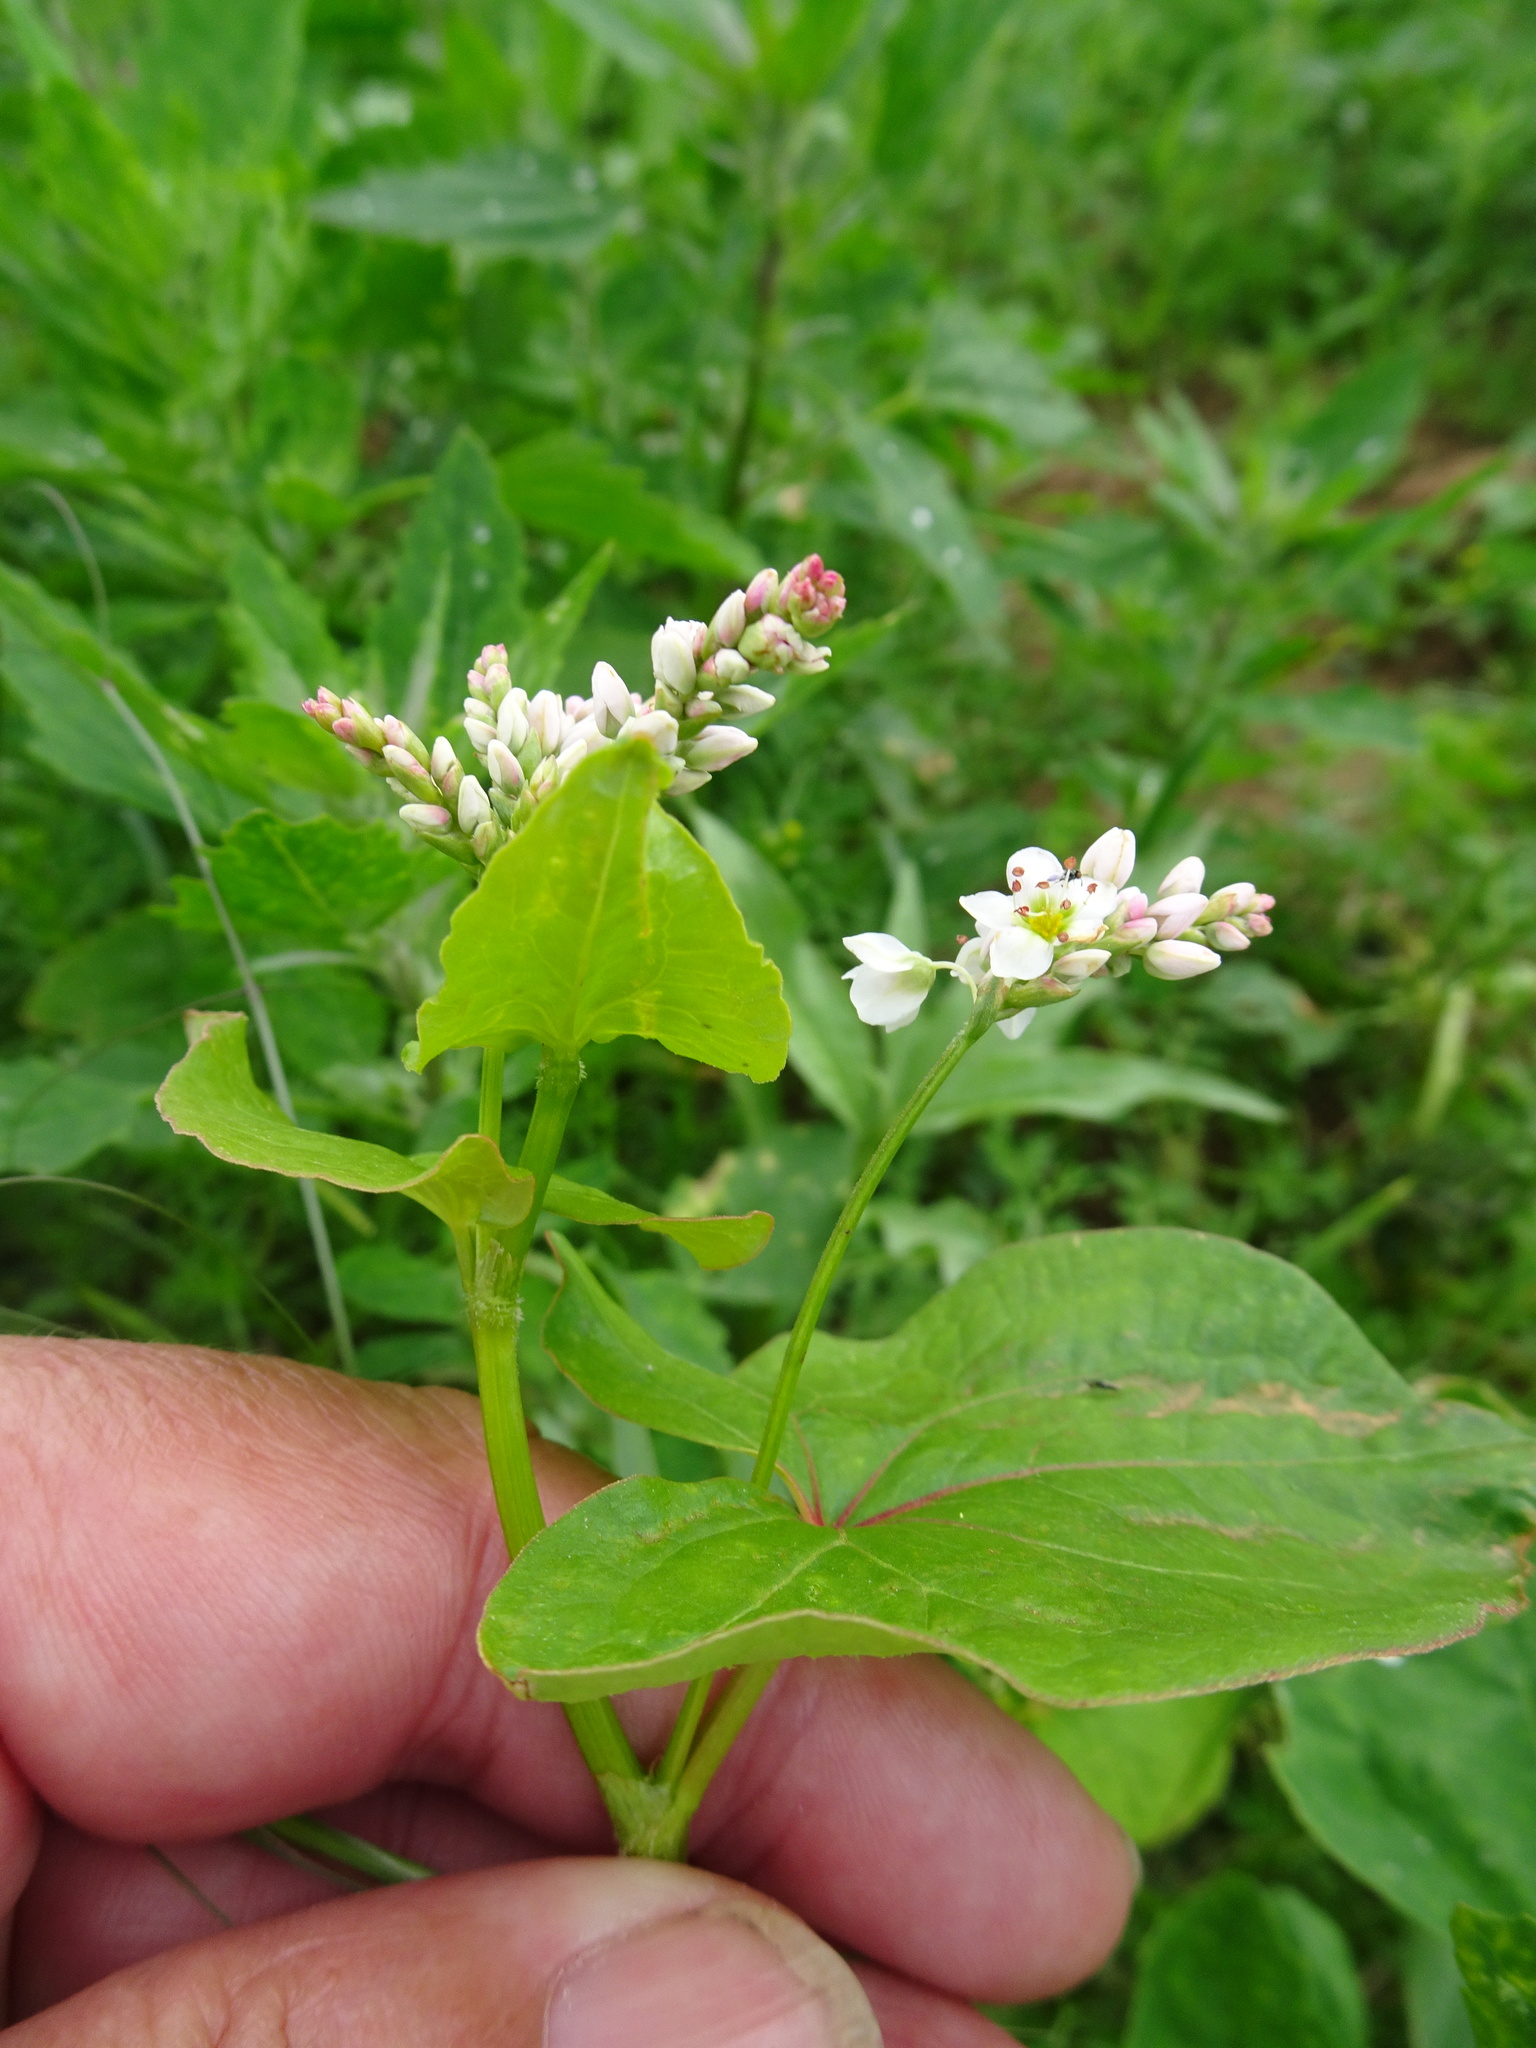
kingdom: Plantae
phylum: Tracheophyta
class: Magnoliopsida
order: Caryophyllales
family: Polygonaceae
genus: Fagopyrum
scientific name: Fagopyrum esculentum
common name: Buckwheat
